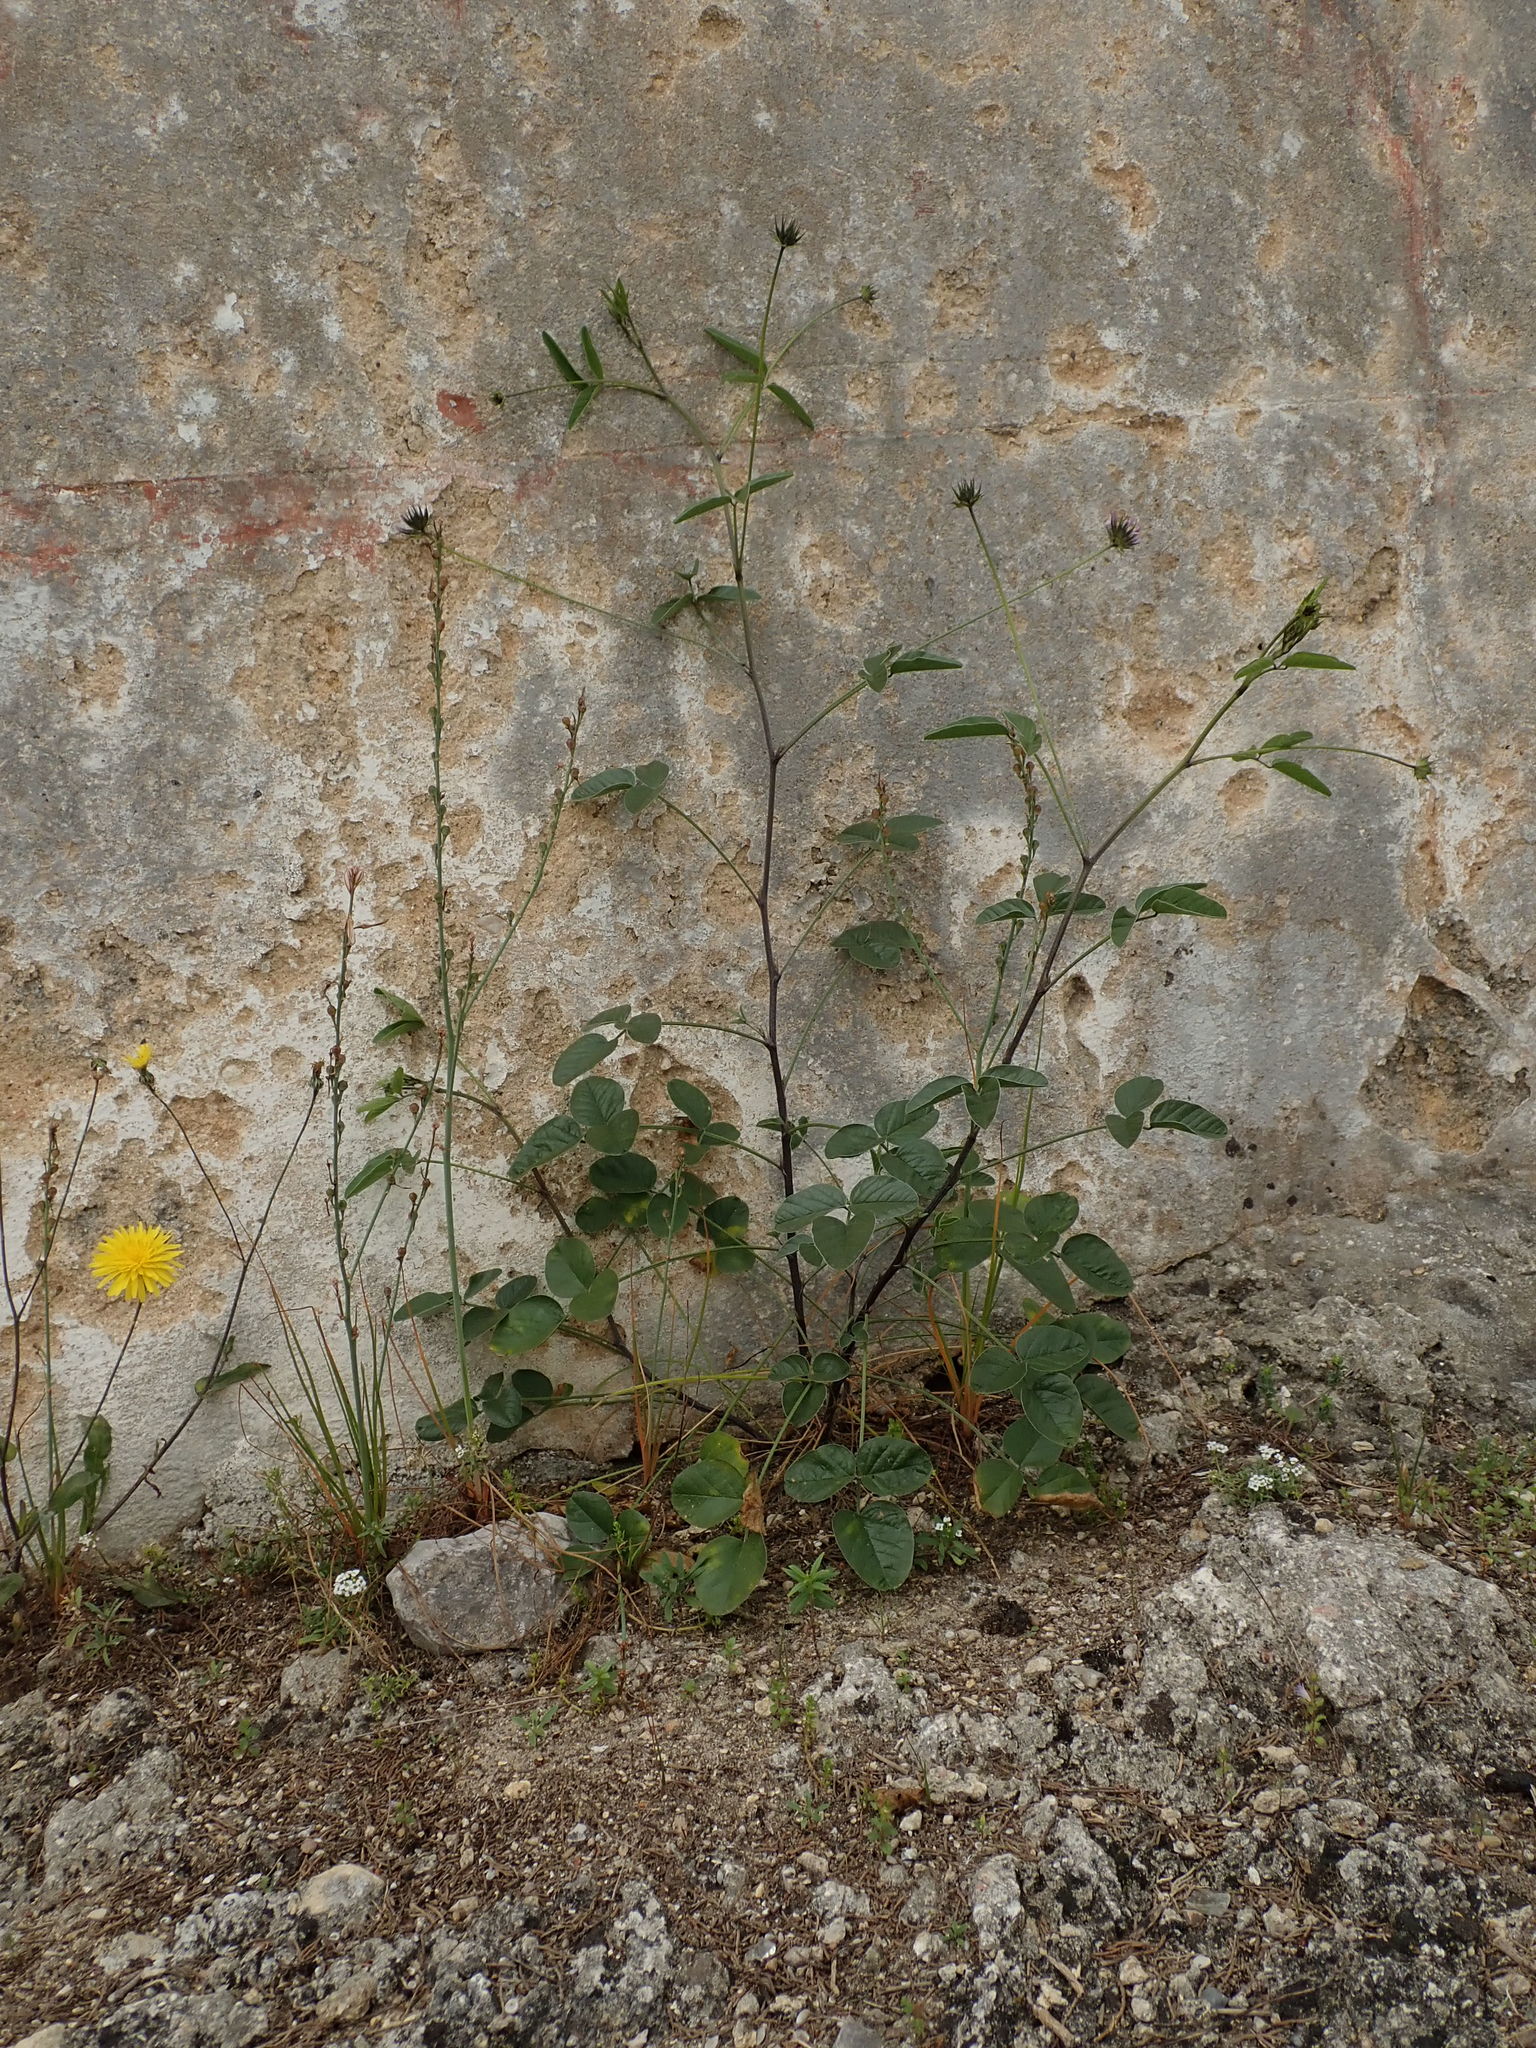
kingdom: Plantae
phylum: Tracheophyta
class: Magnoliopsida
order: Fabales
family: Fabaceae
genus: Bituminaria
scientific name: Bituminaria bituminosa
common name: Arabian pea
